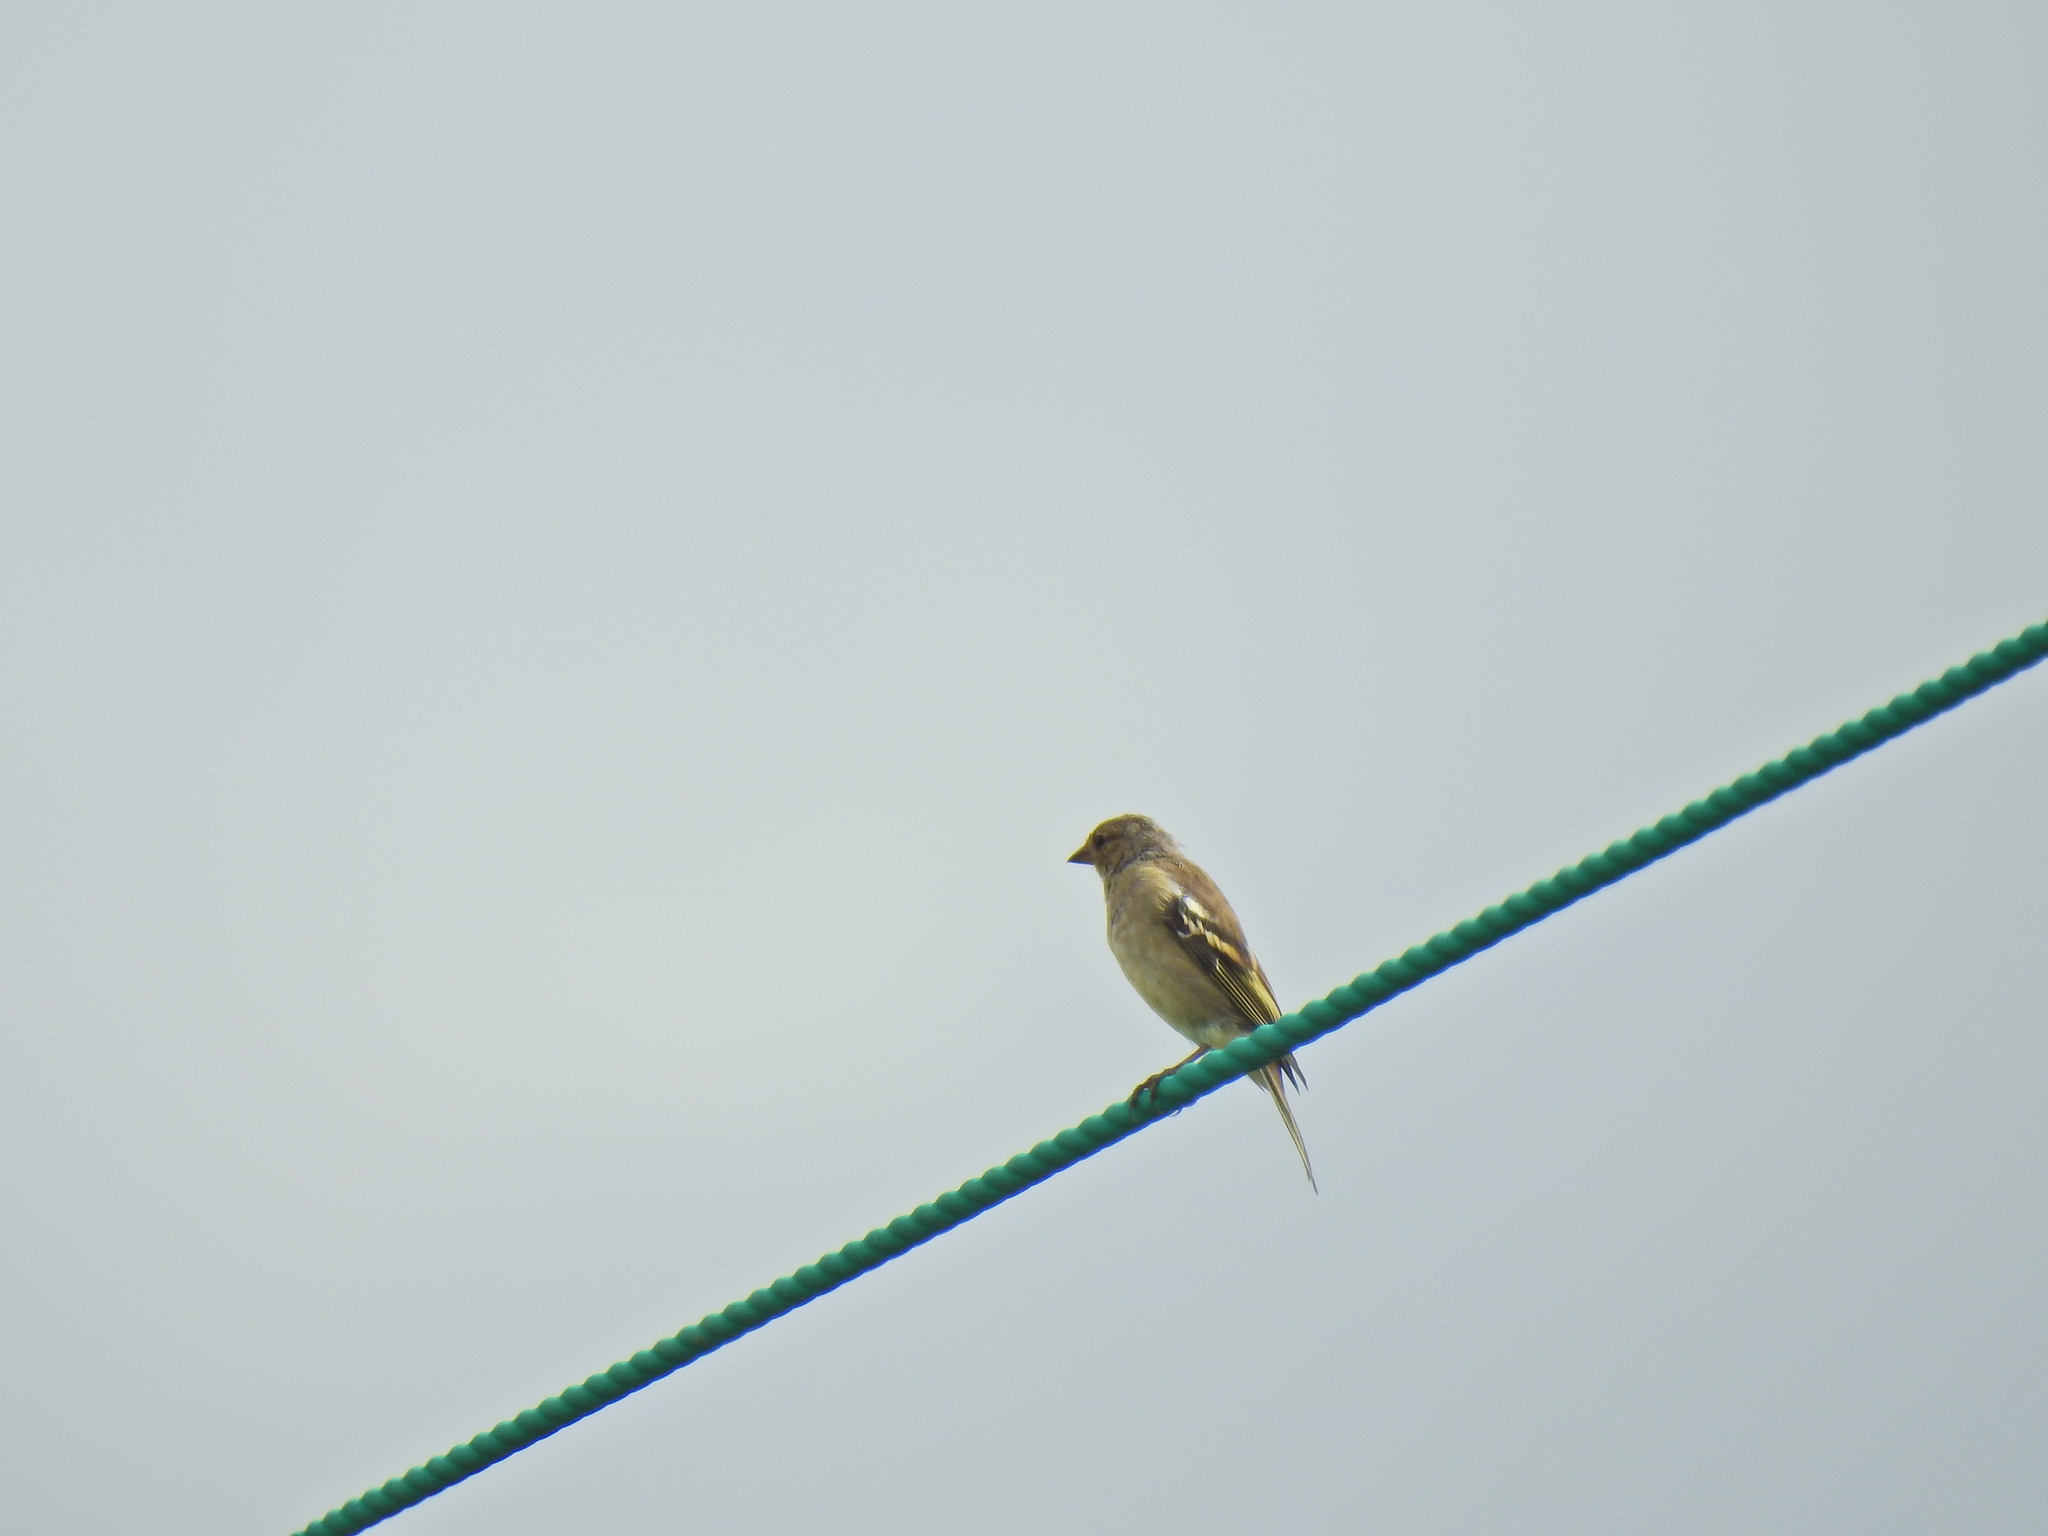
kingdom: Animalia
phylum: Chordata
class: Aves
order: Passeriformes
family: Fringillidae
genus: Carduelis
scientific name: Carduelis carduelis
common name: European goldfinch
